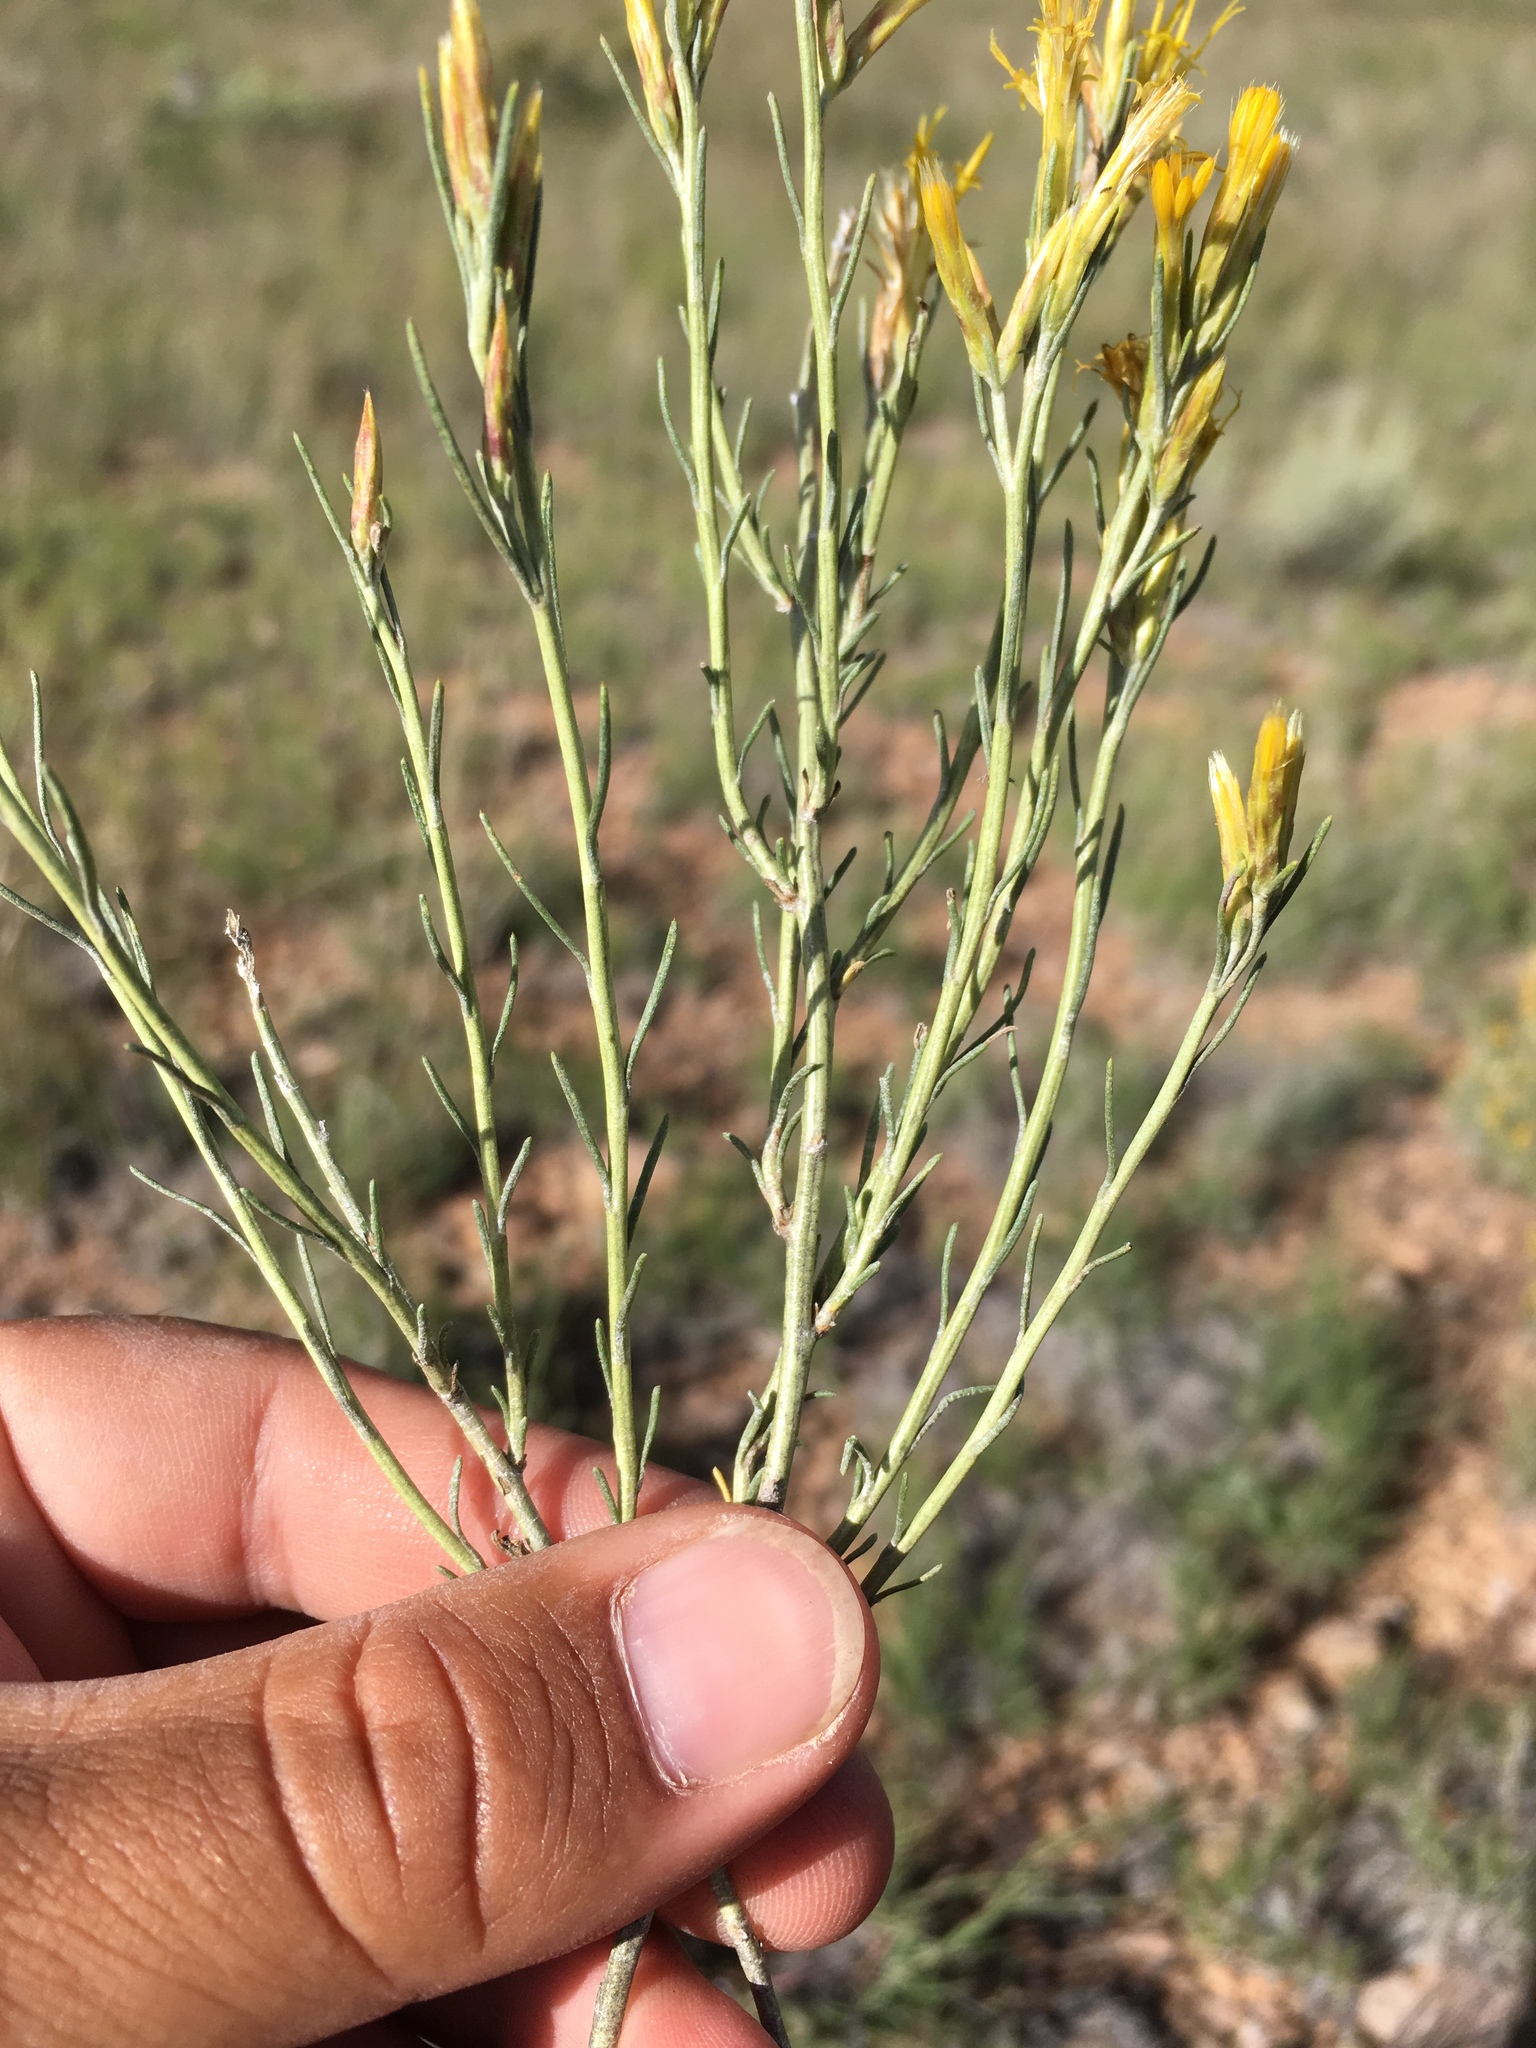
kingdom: Plantae
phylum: Tracheophyta
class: Magnoliopsida
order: Asterales
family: Asteraceae
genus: Ericameria
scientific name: Ericameria nauseosa
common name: Rubber rabbitbrush
